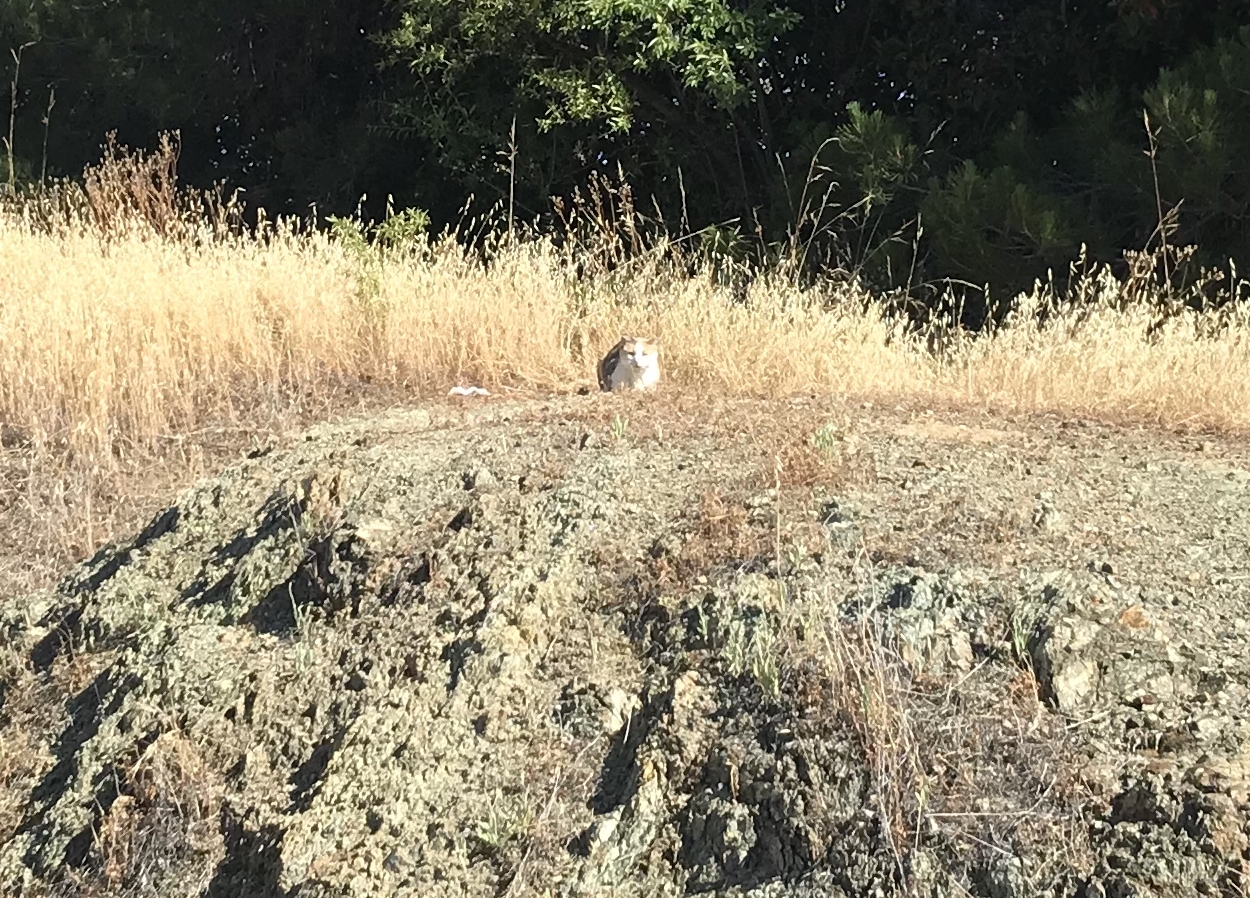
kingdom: Animalia
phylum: Chordata
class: Mammalia
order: Carnivora
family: Felidae
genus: Felis
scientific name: Felis catus
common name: Domestic cat
